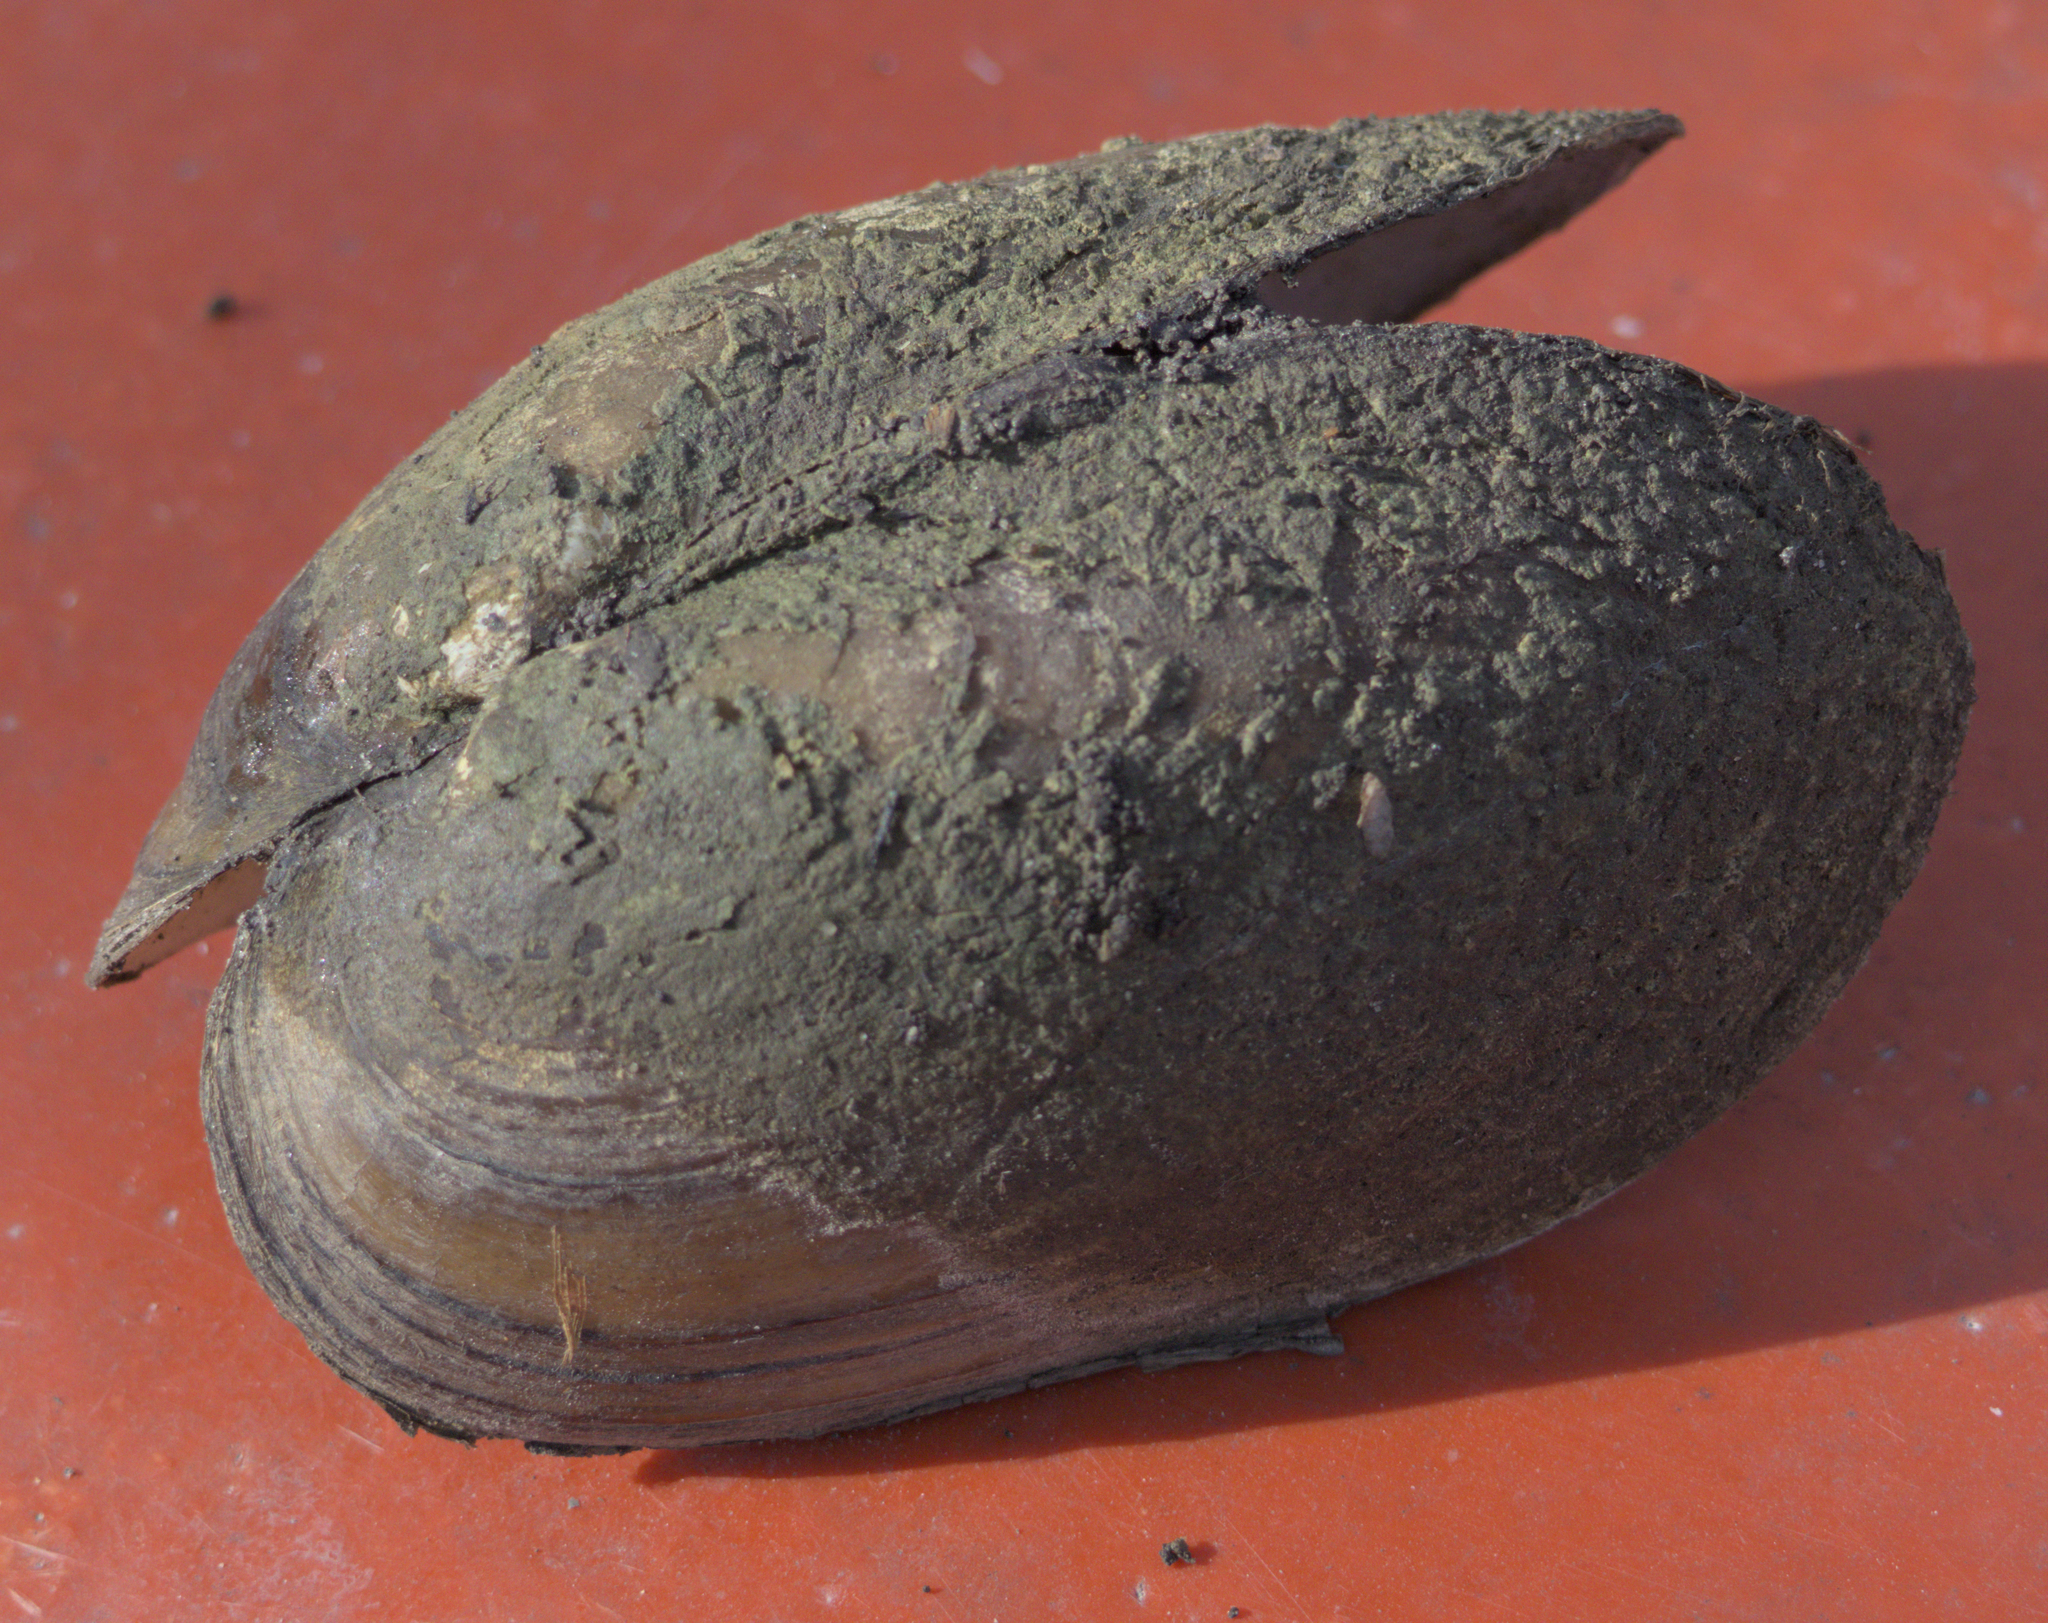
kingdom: Animalia
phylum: Mollusca
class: Bivalvia
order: Unionida
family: Unionidae
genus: Lampsilis
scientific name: Lampsilis siliquoidea
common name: Fatmucket
